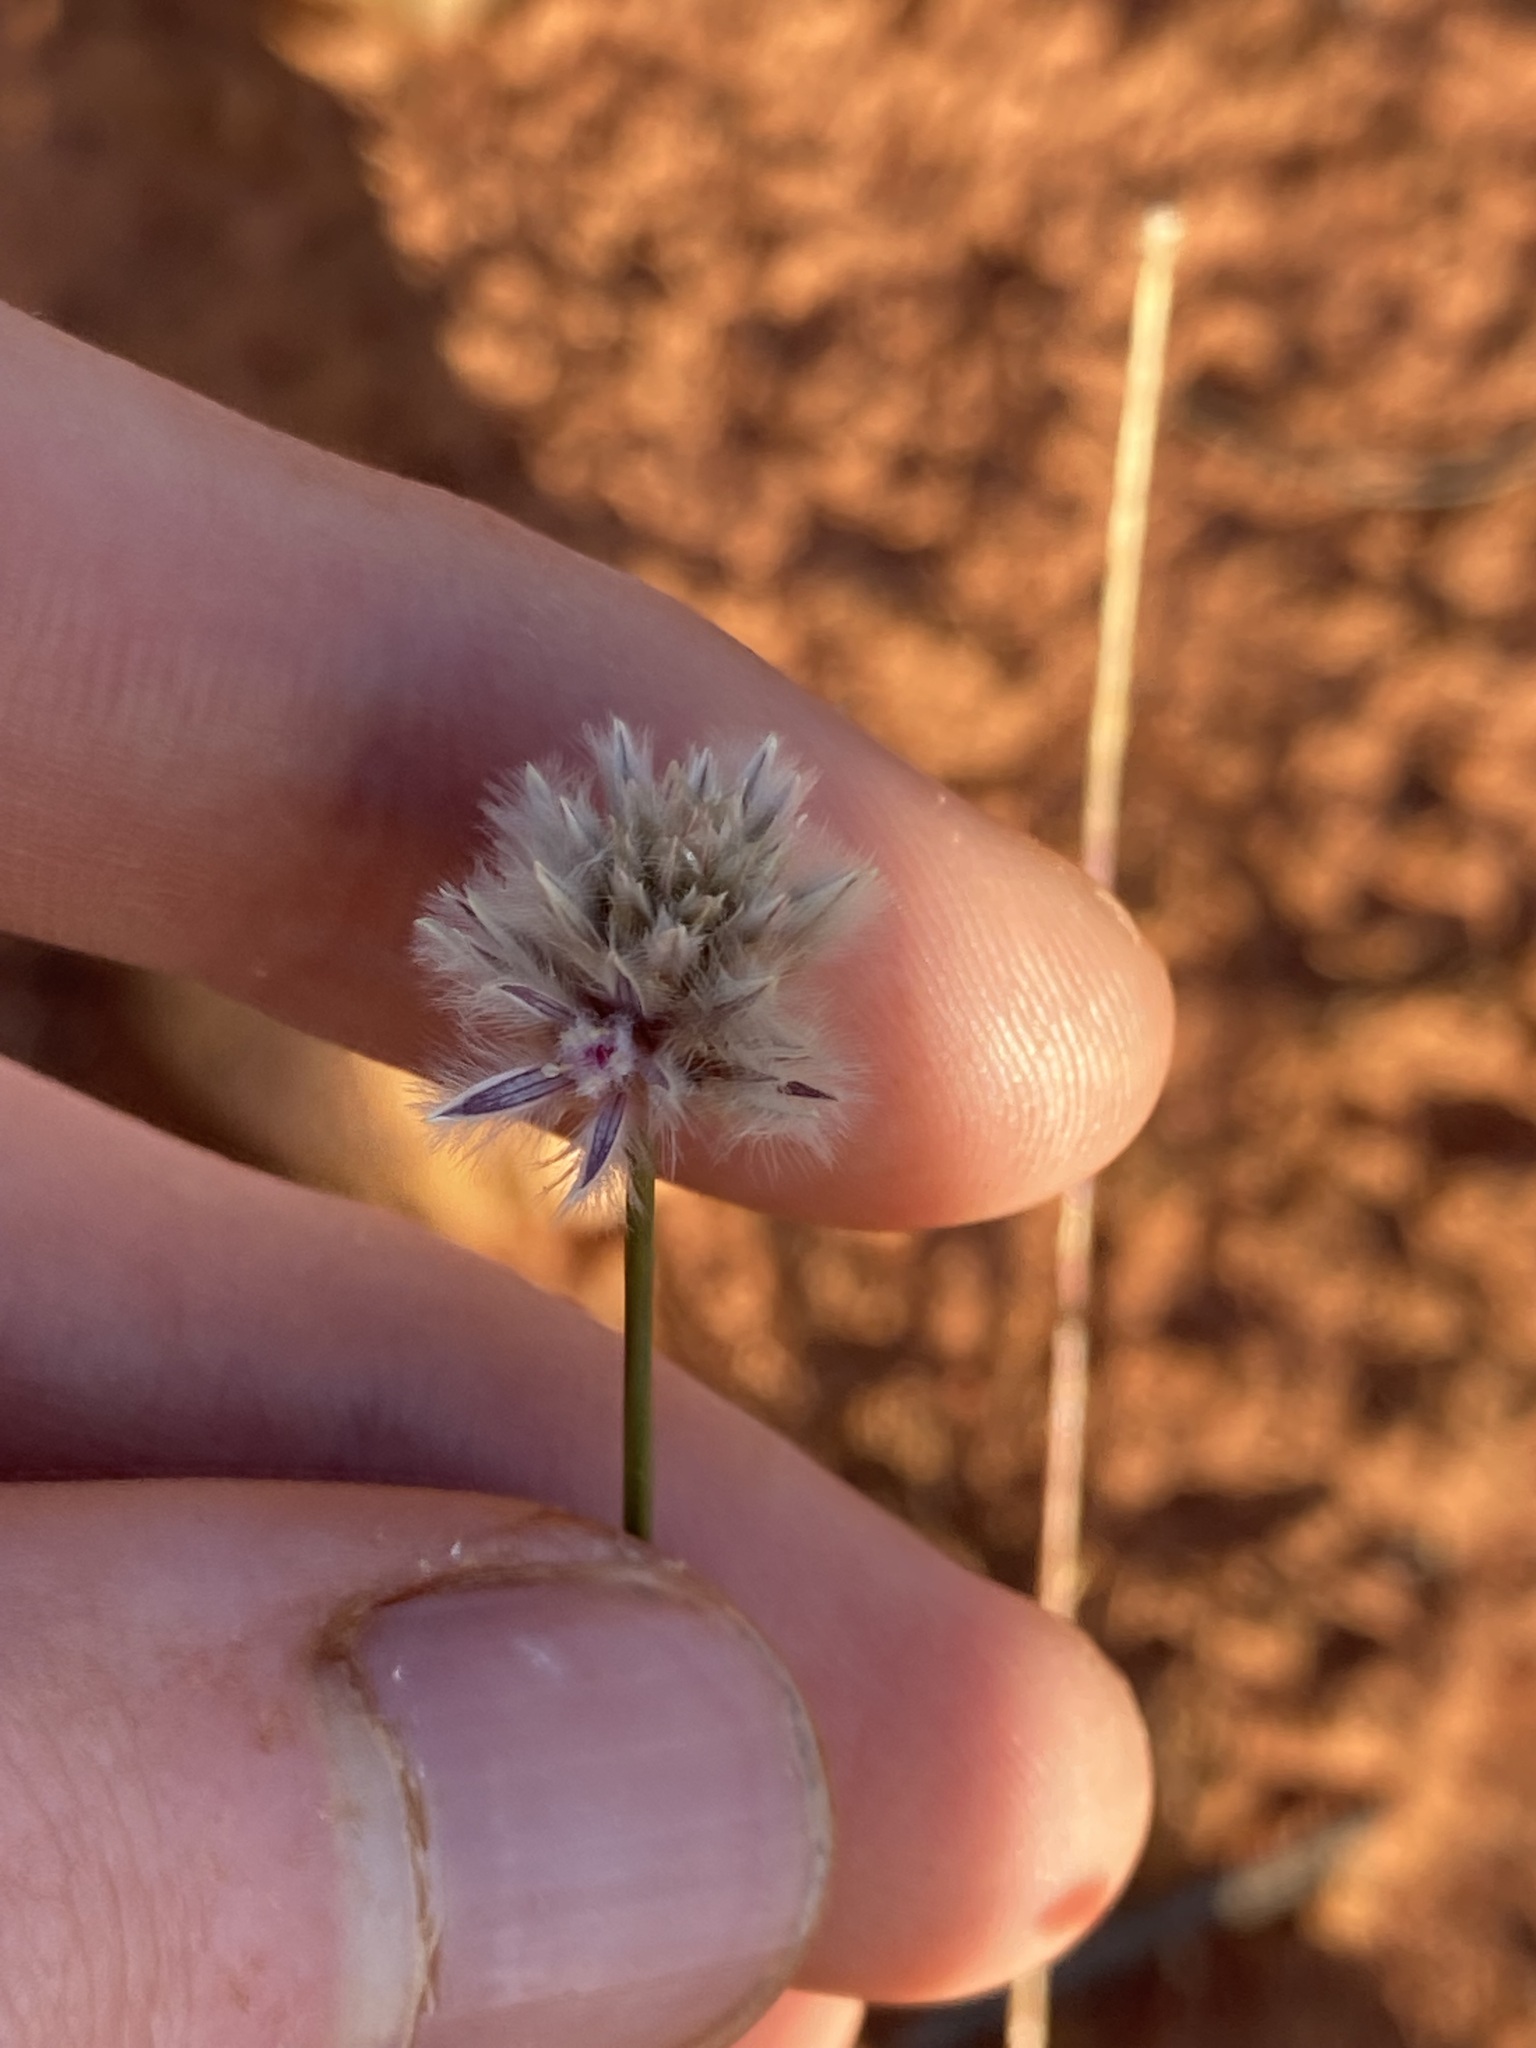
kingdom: Plantae
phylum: Tracheophyta
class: Magnoliopsida
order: Caryophyllales
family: Amaranthaceae
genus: Ptilotus
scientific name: Ptilotus schwartzii
